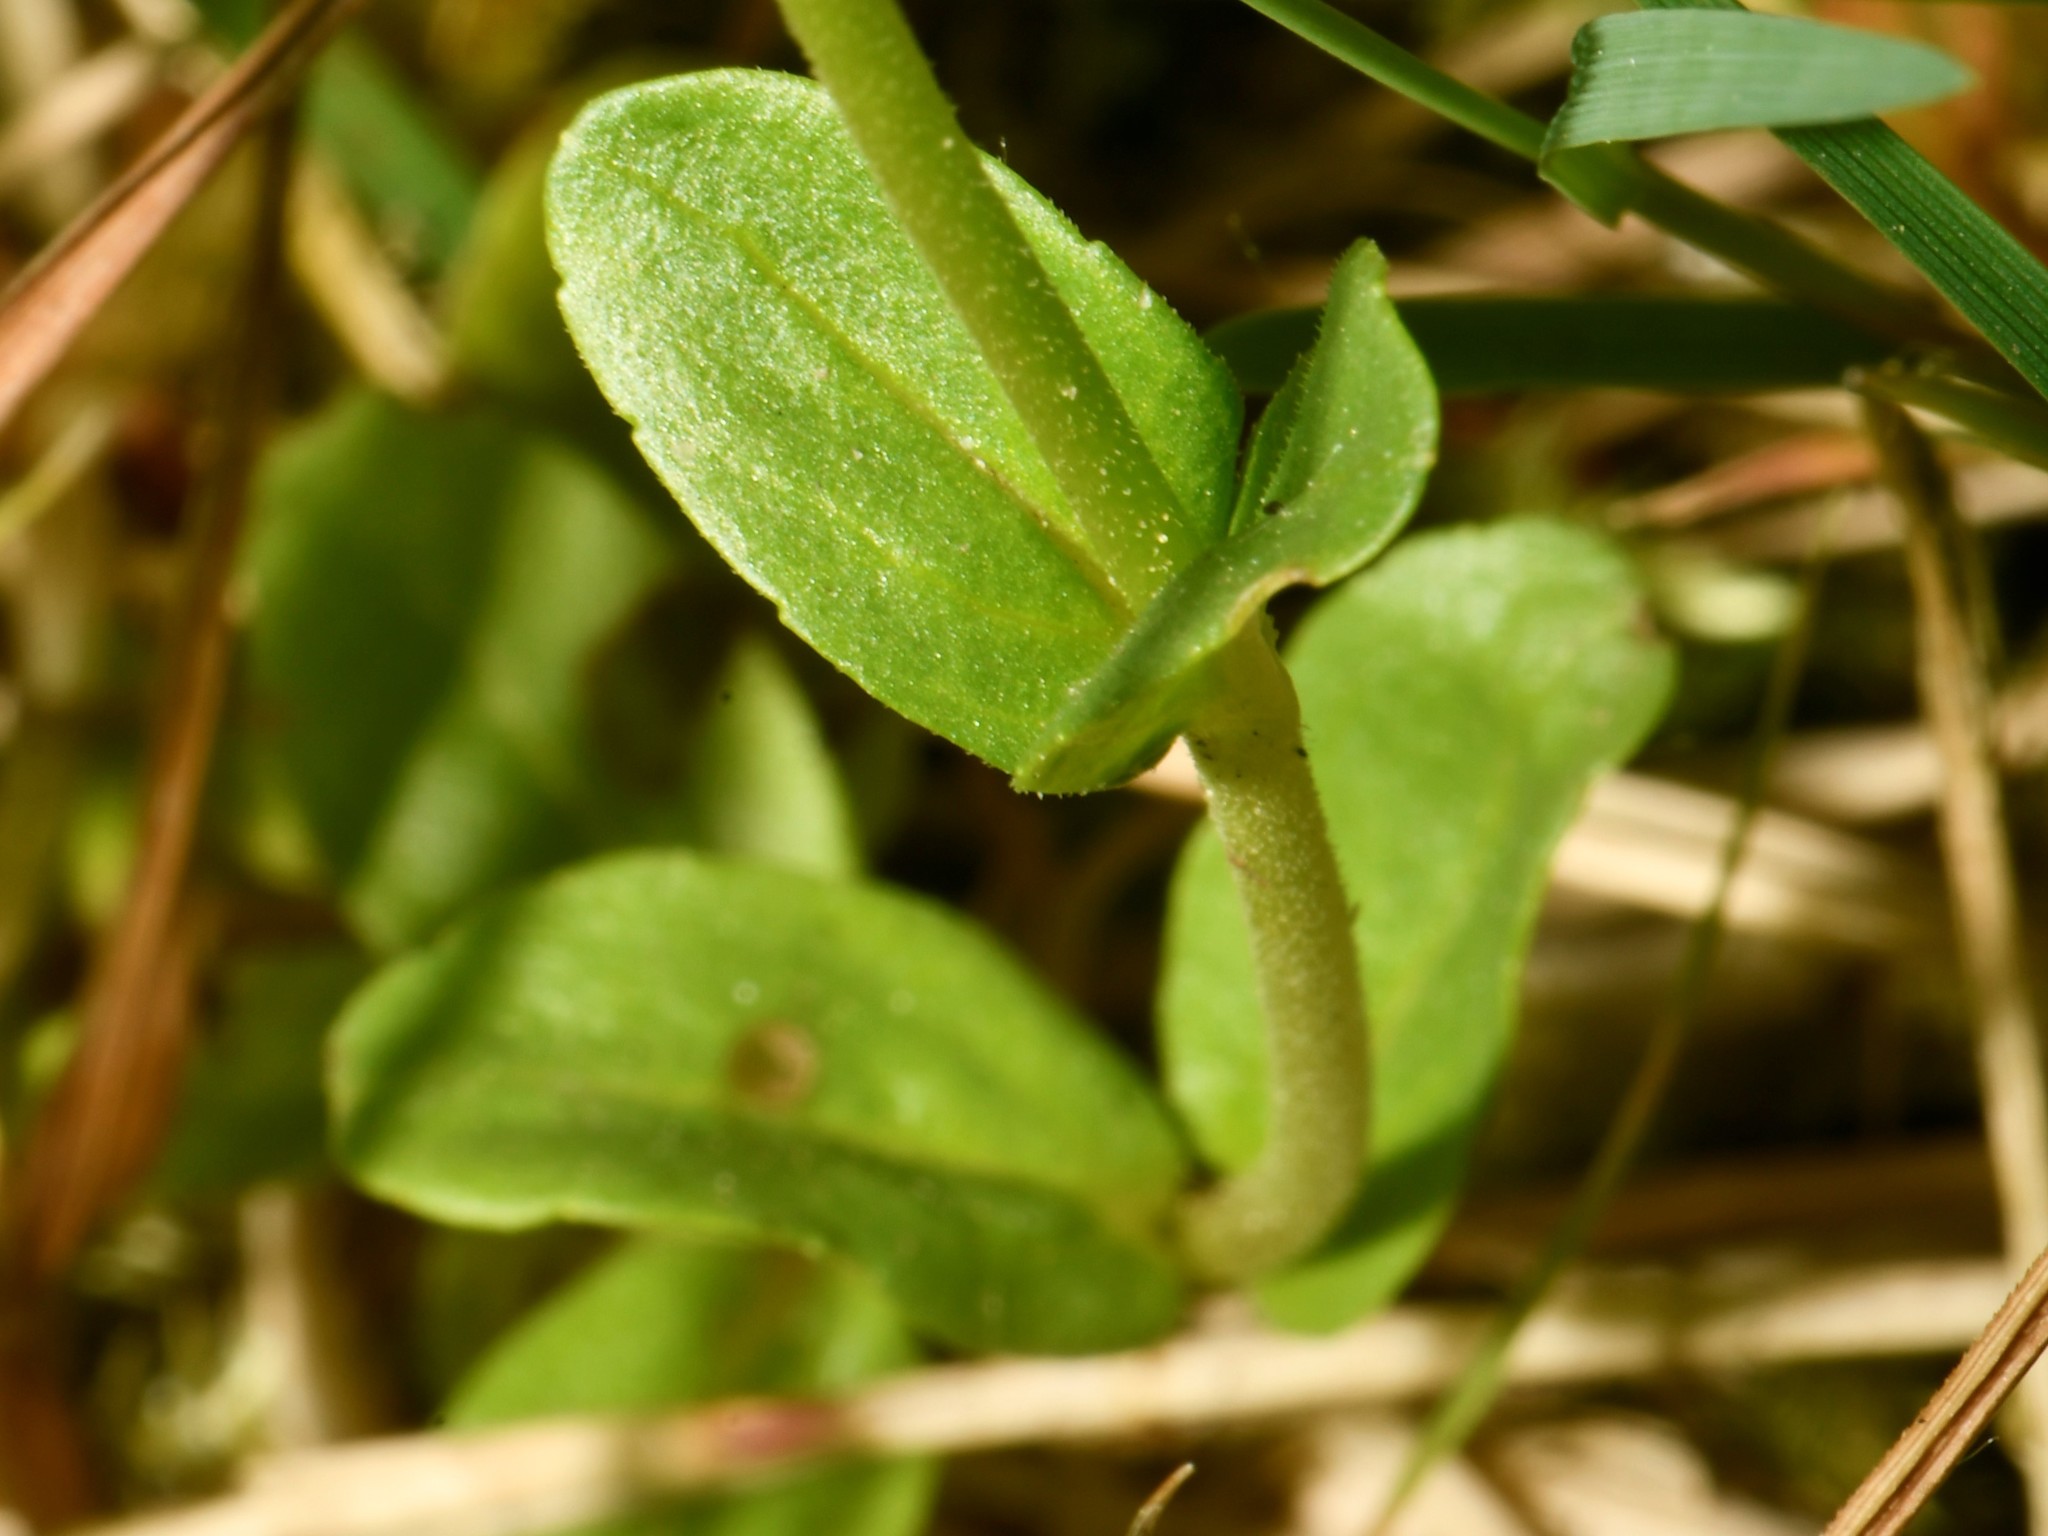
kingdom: Plantae
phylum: Tracheophyta
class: Magnoliopsida
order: Lamiales
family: Plantaginaceae
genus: Veronica
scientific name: Veronica serpyllifolia
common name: Thyme-leaved speedwell
